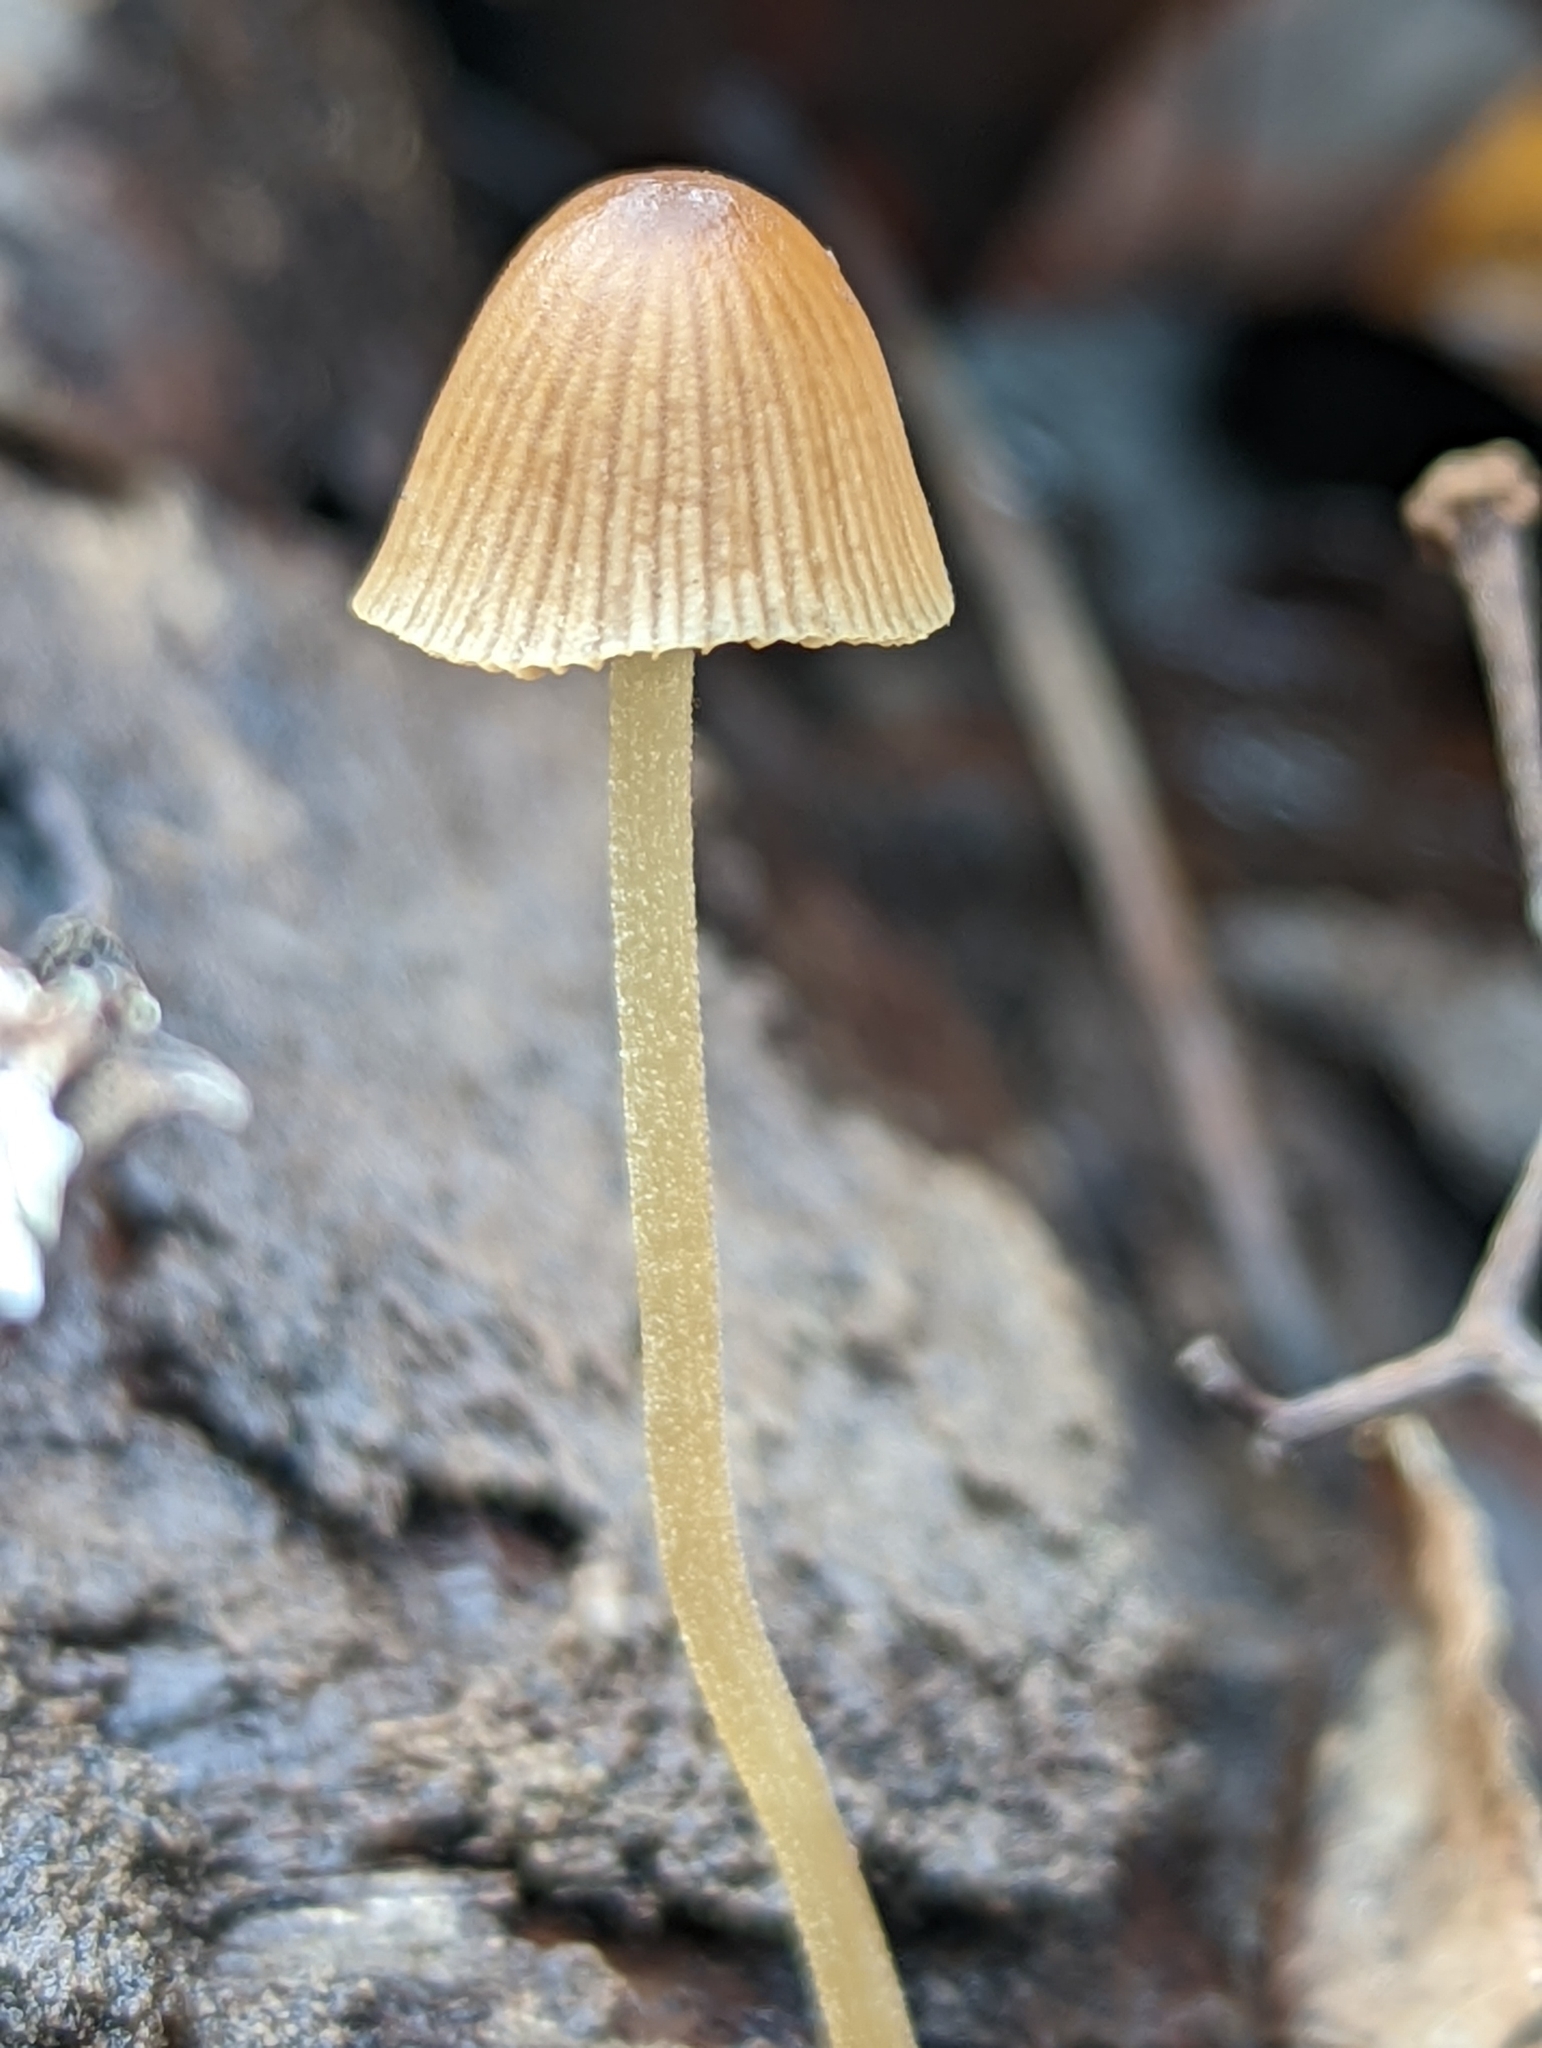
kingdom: Fungi
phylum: Basidiomycota
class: Agaricomycetes
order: Agaricales
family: Bolbitiaceae
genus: Conocybe
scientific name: Conocybe macrospora
